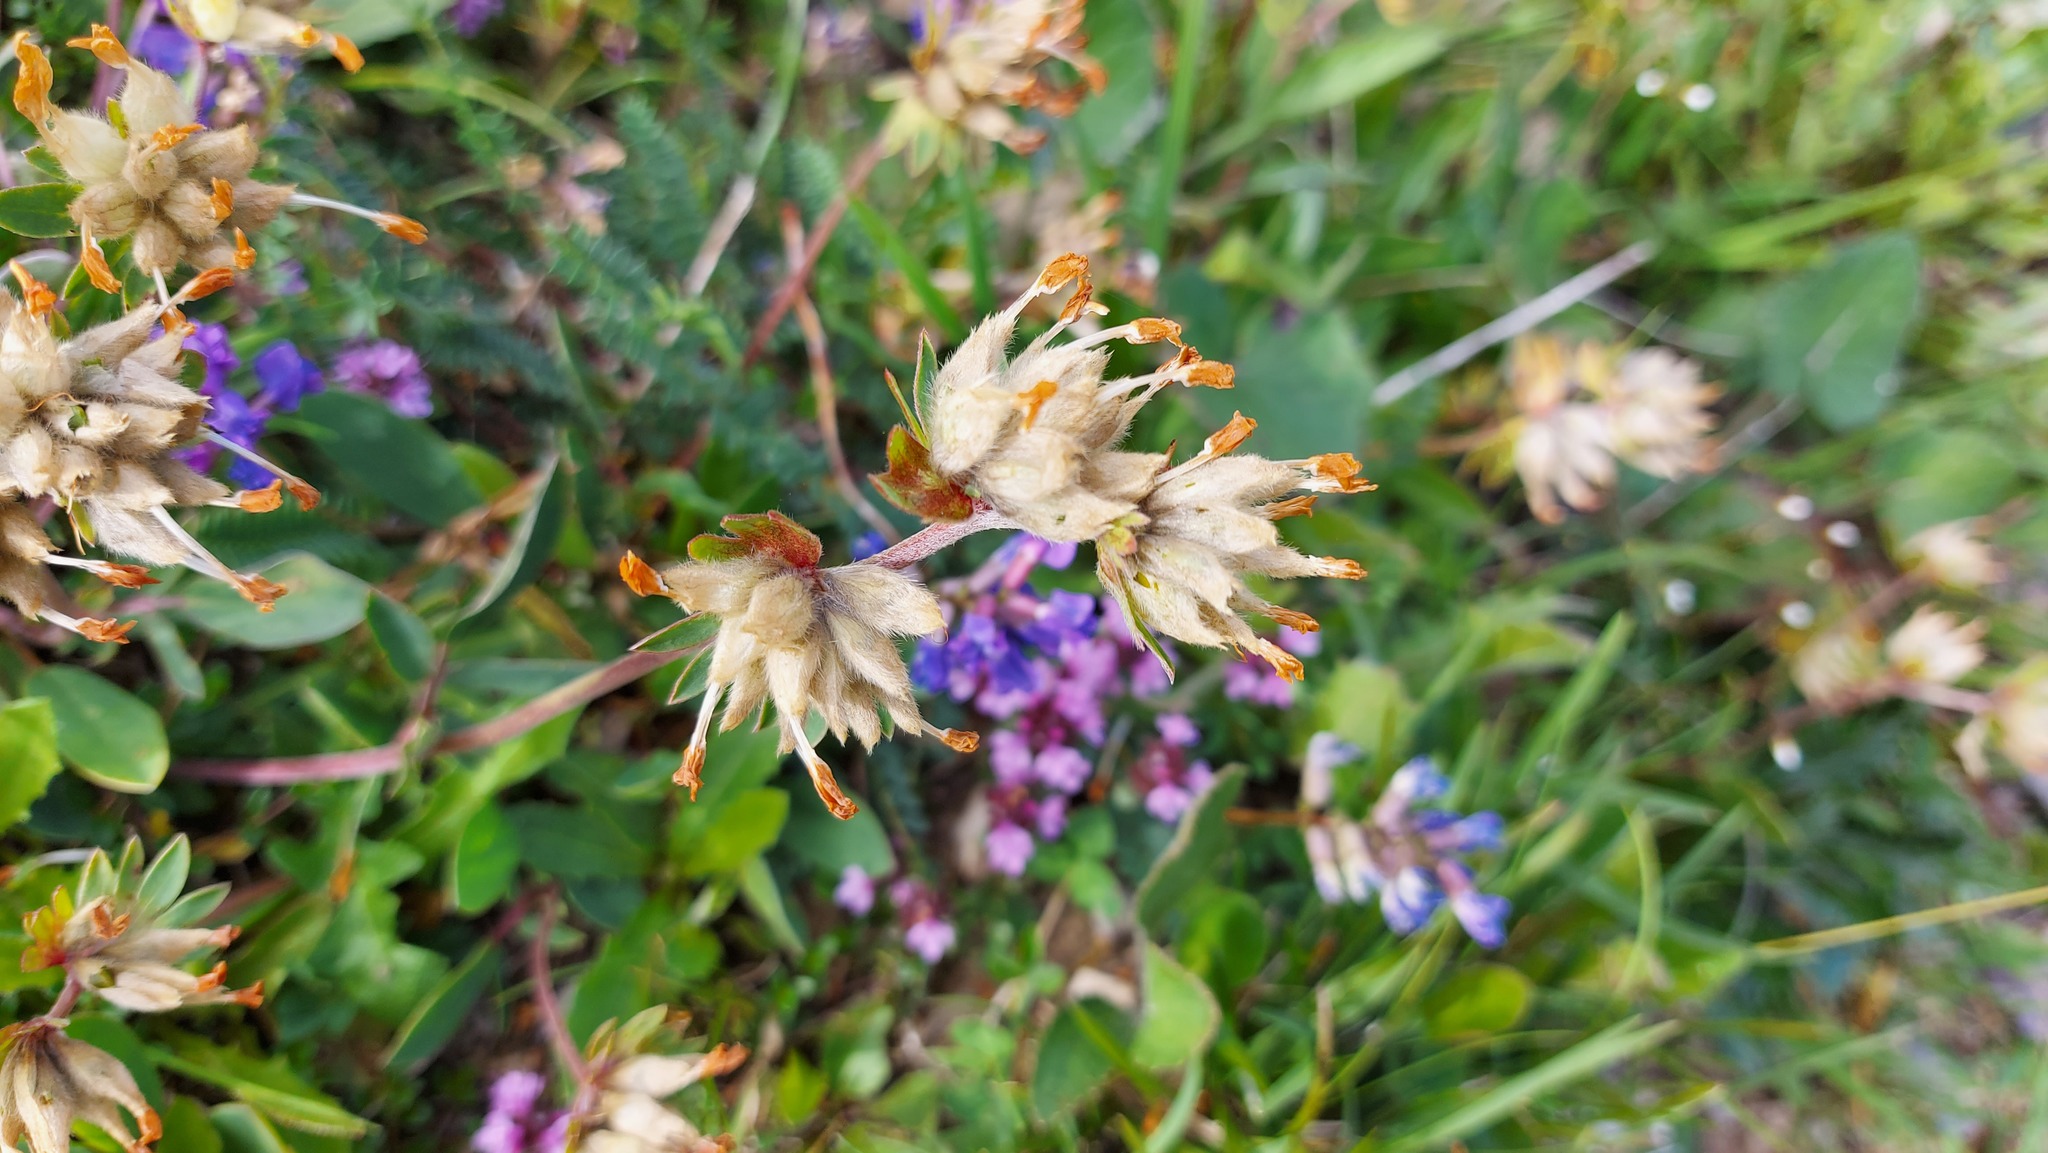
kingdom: Plantae
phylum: Tracheophyta
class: Magnoliopsida
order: Fabales
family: Fabaceae
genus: Anthyllis
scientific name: Anthyllis vulneraria
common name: Kidney vetch
